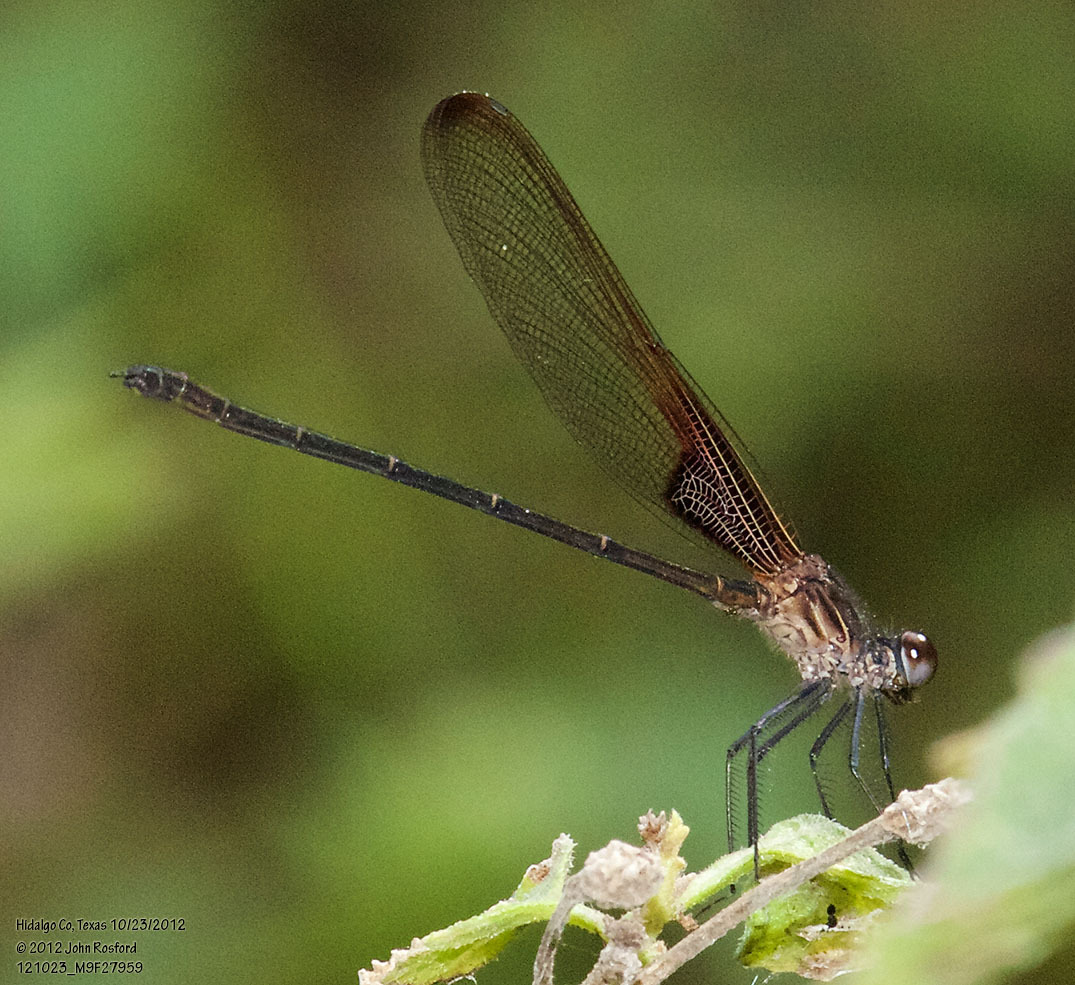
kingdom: Animalia
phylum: Arthropoda
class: Insecta
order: Odonata
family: Calopterygidae
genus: Hetaerina
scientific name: Hetaerina titia
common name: Smoky rubyspot
